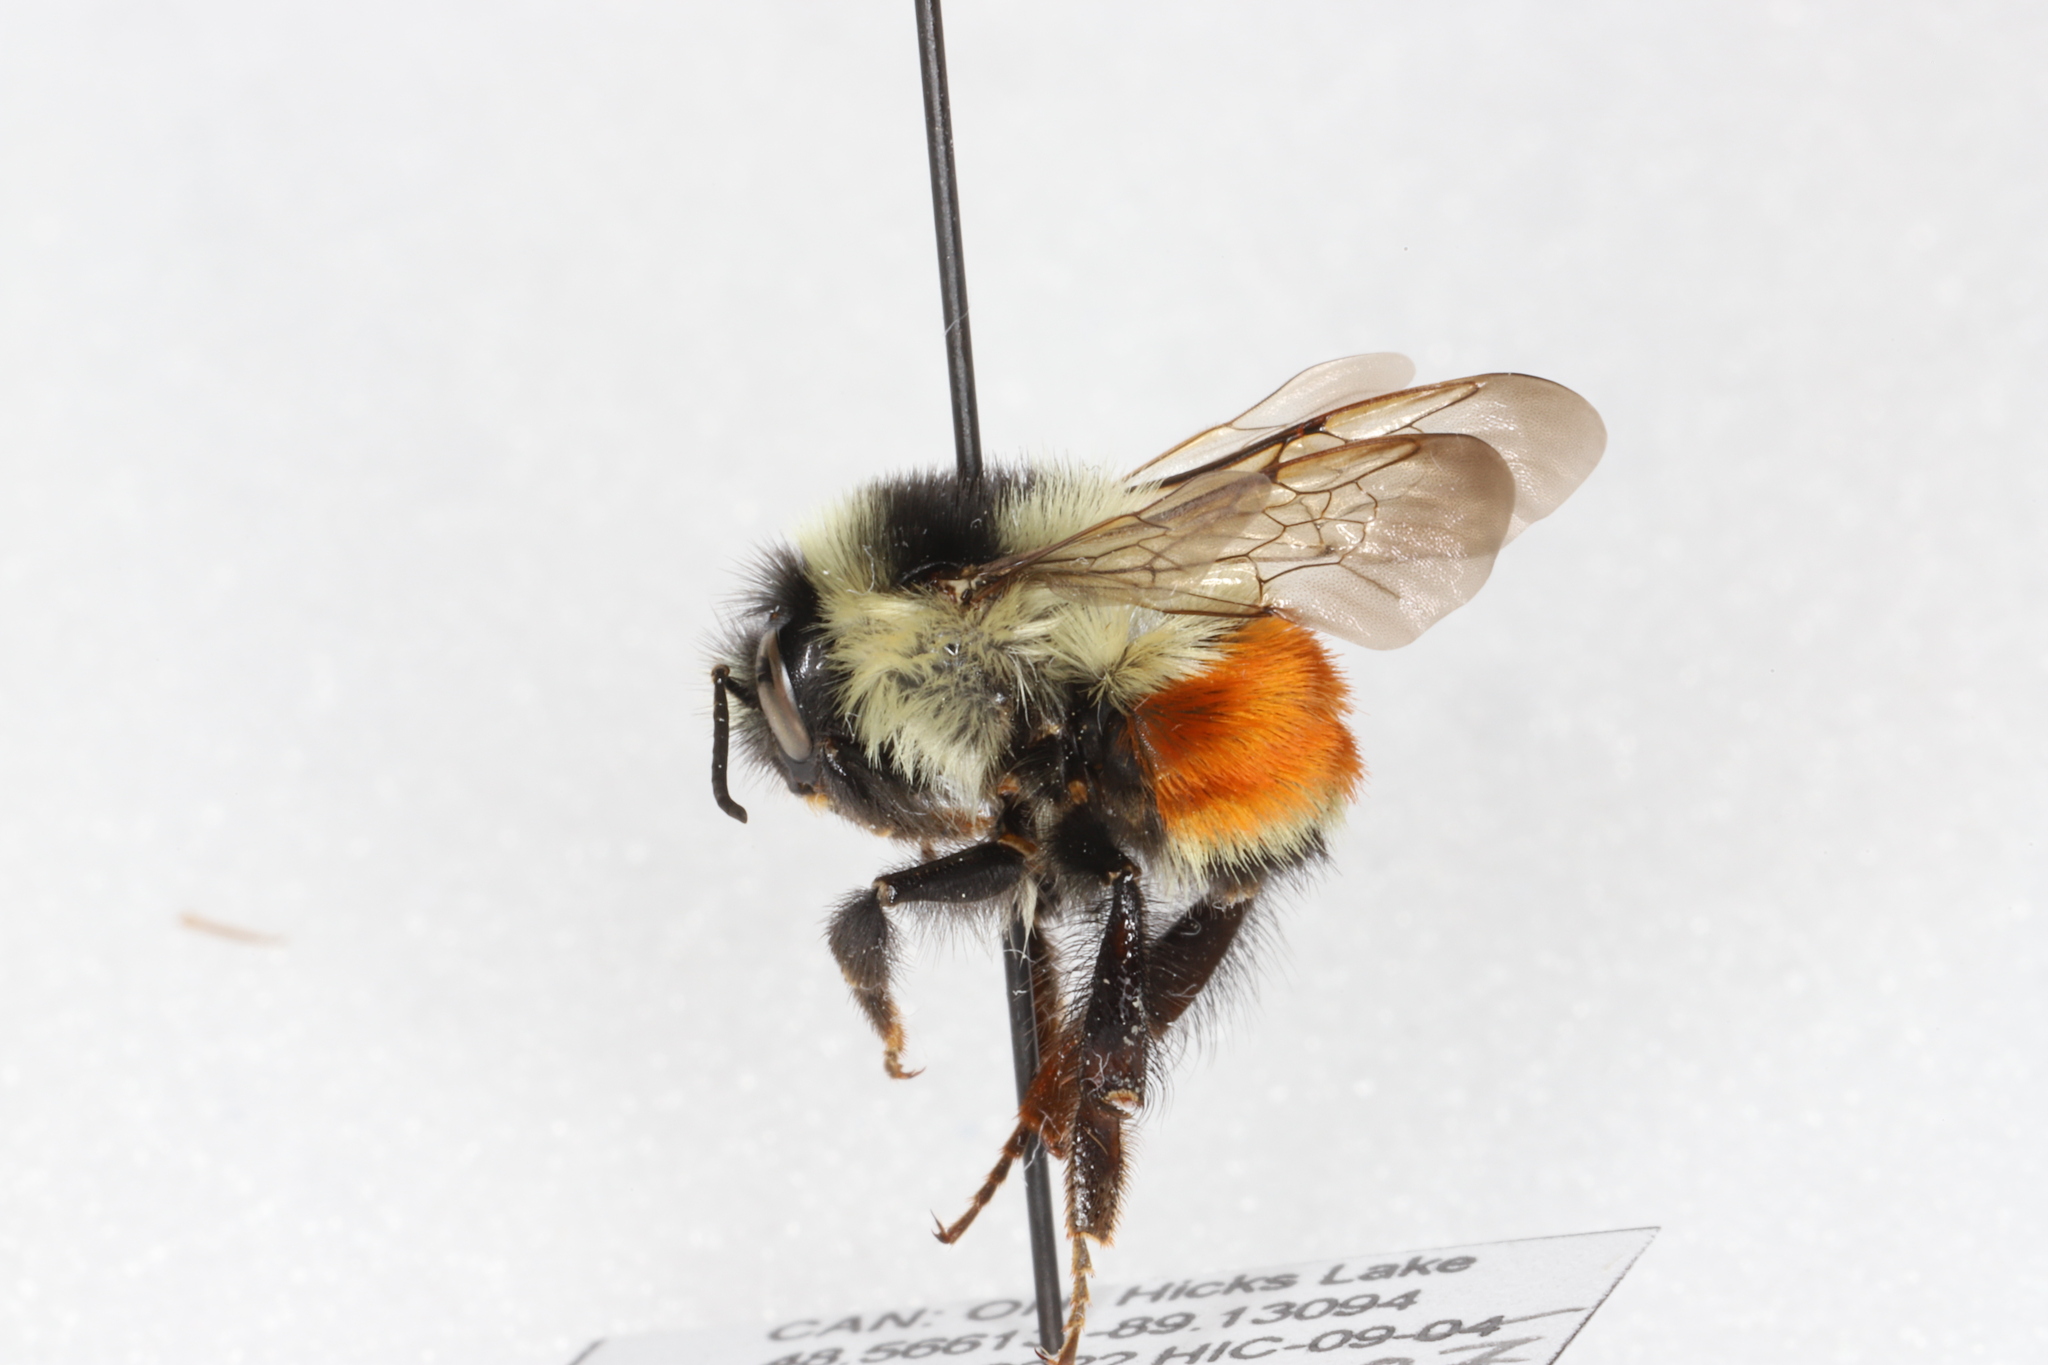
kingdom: Animalia
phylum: Arthropoda
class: Insecta
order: Hymenoptera
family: Apidae
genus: Bombus
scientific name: Bombus ternarius
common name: Tri-colored bumble bee
